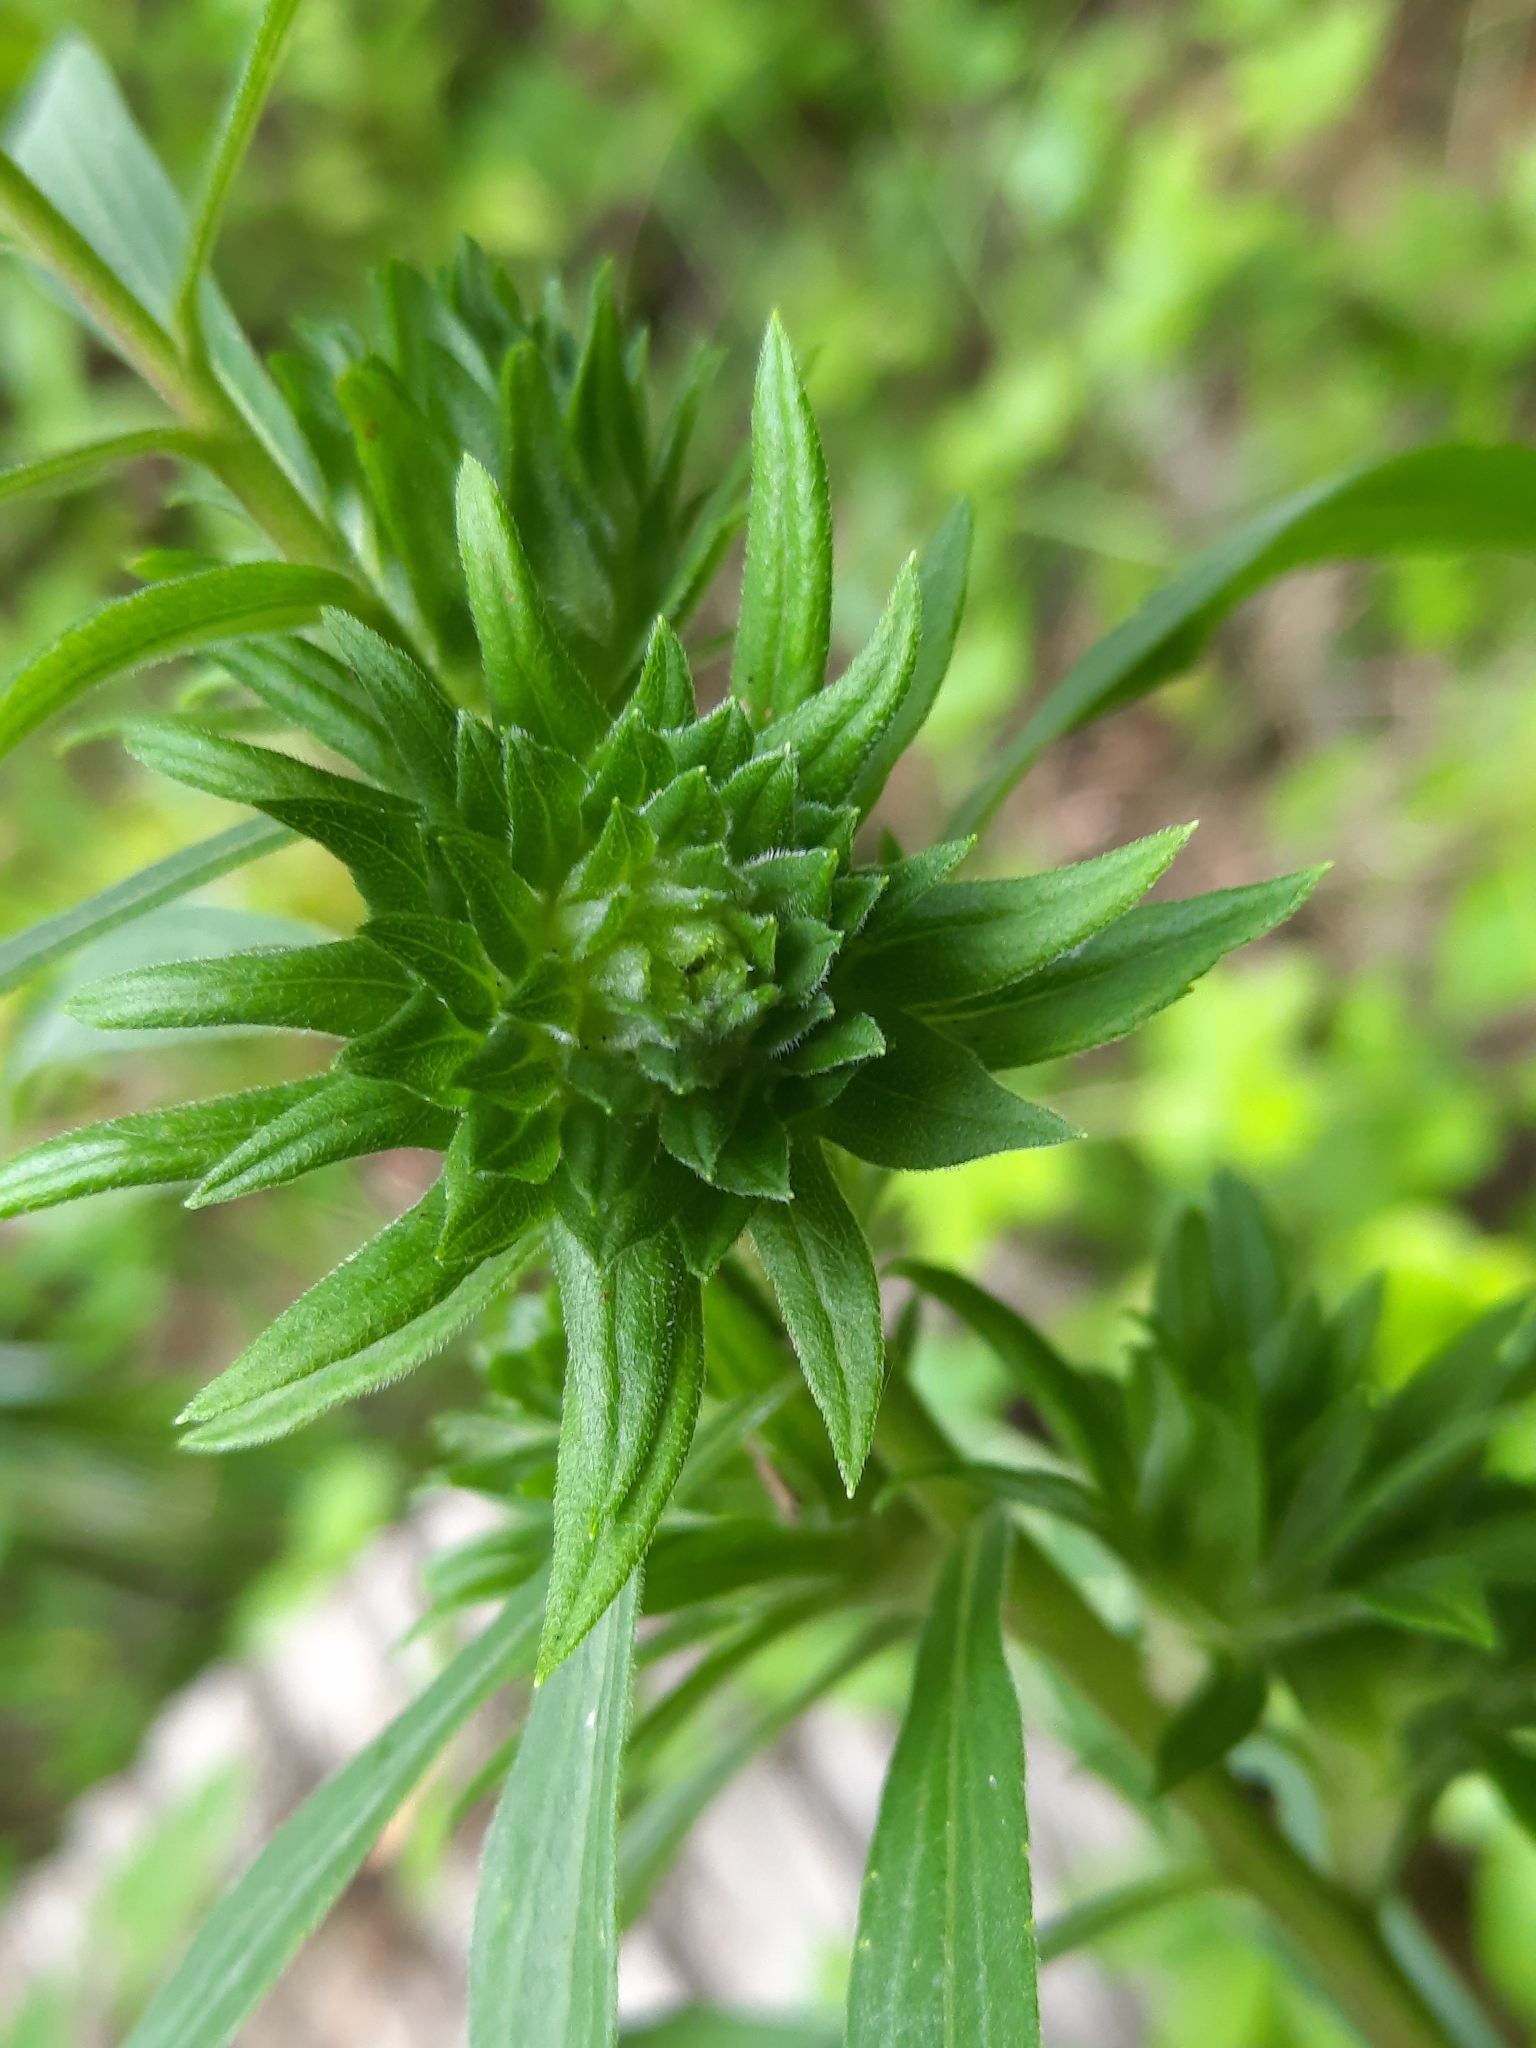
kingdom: Animalia
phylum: Arthropoda
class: Insecta
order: Diptera
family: Tephritidae
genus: Procecidochares
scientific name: Procecidochares atra
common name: Goldenrod brussels sprout gall fly
